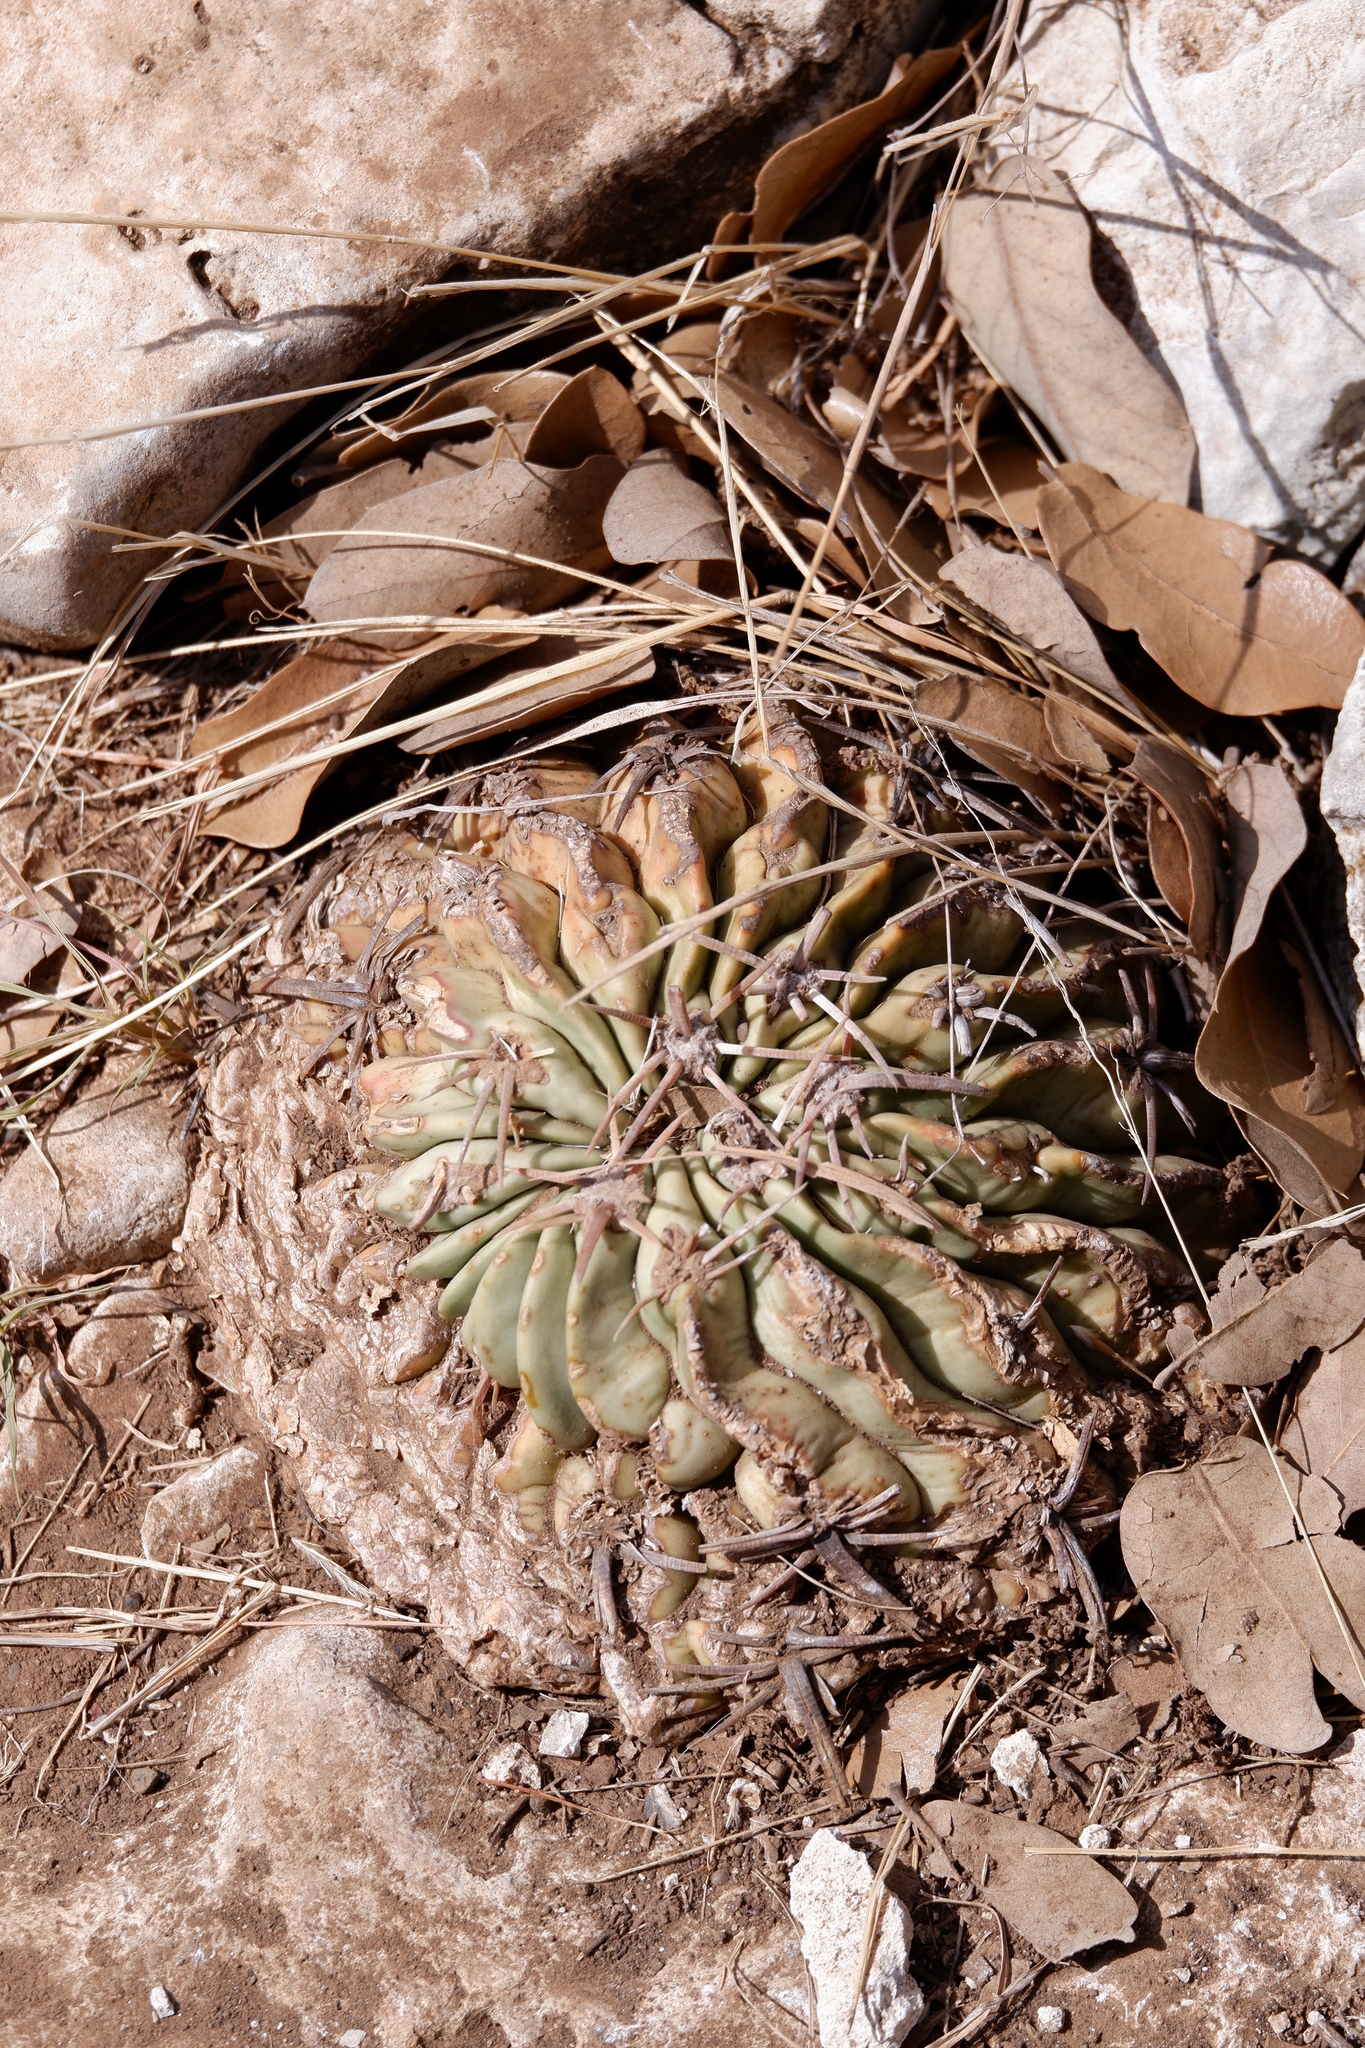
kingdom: Plantae
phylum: Tracheophyta
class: Magnoliopsida
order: Caryophyllales
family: Cactaceae
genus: Echinocactus
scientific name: Echinocactus texensis
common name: Devil's pincushion
